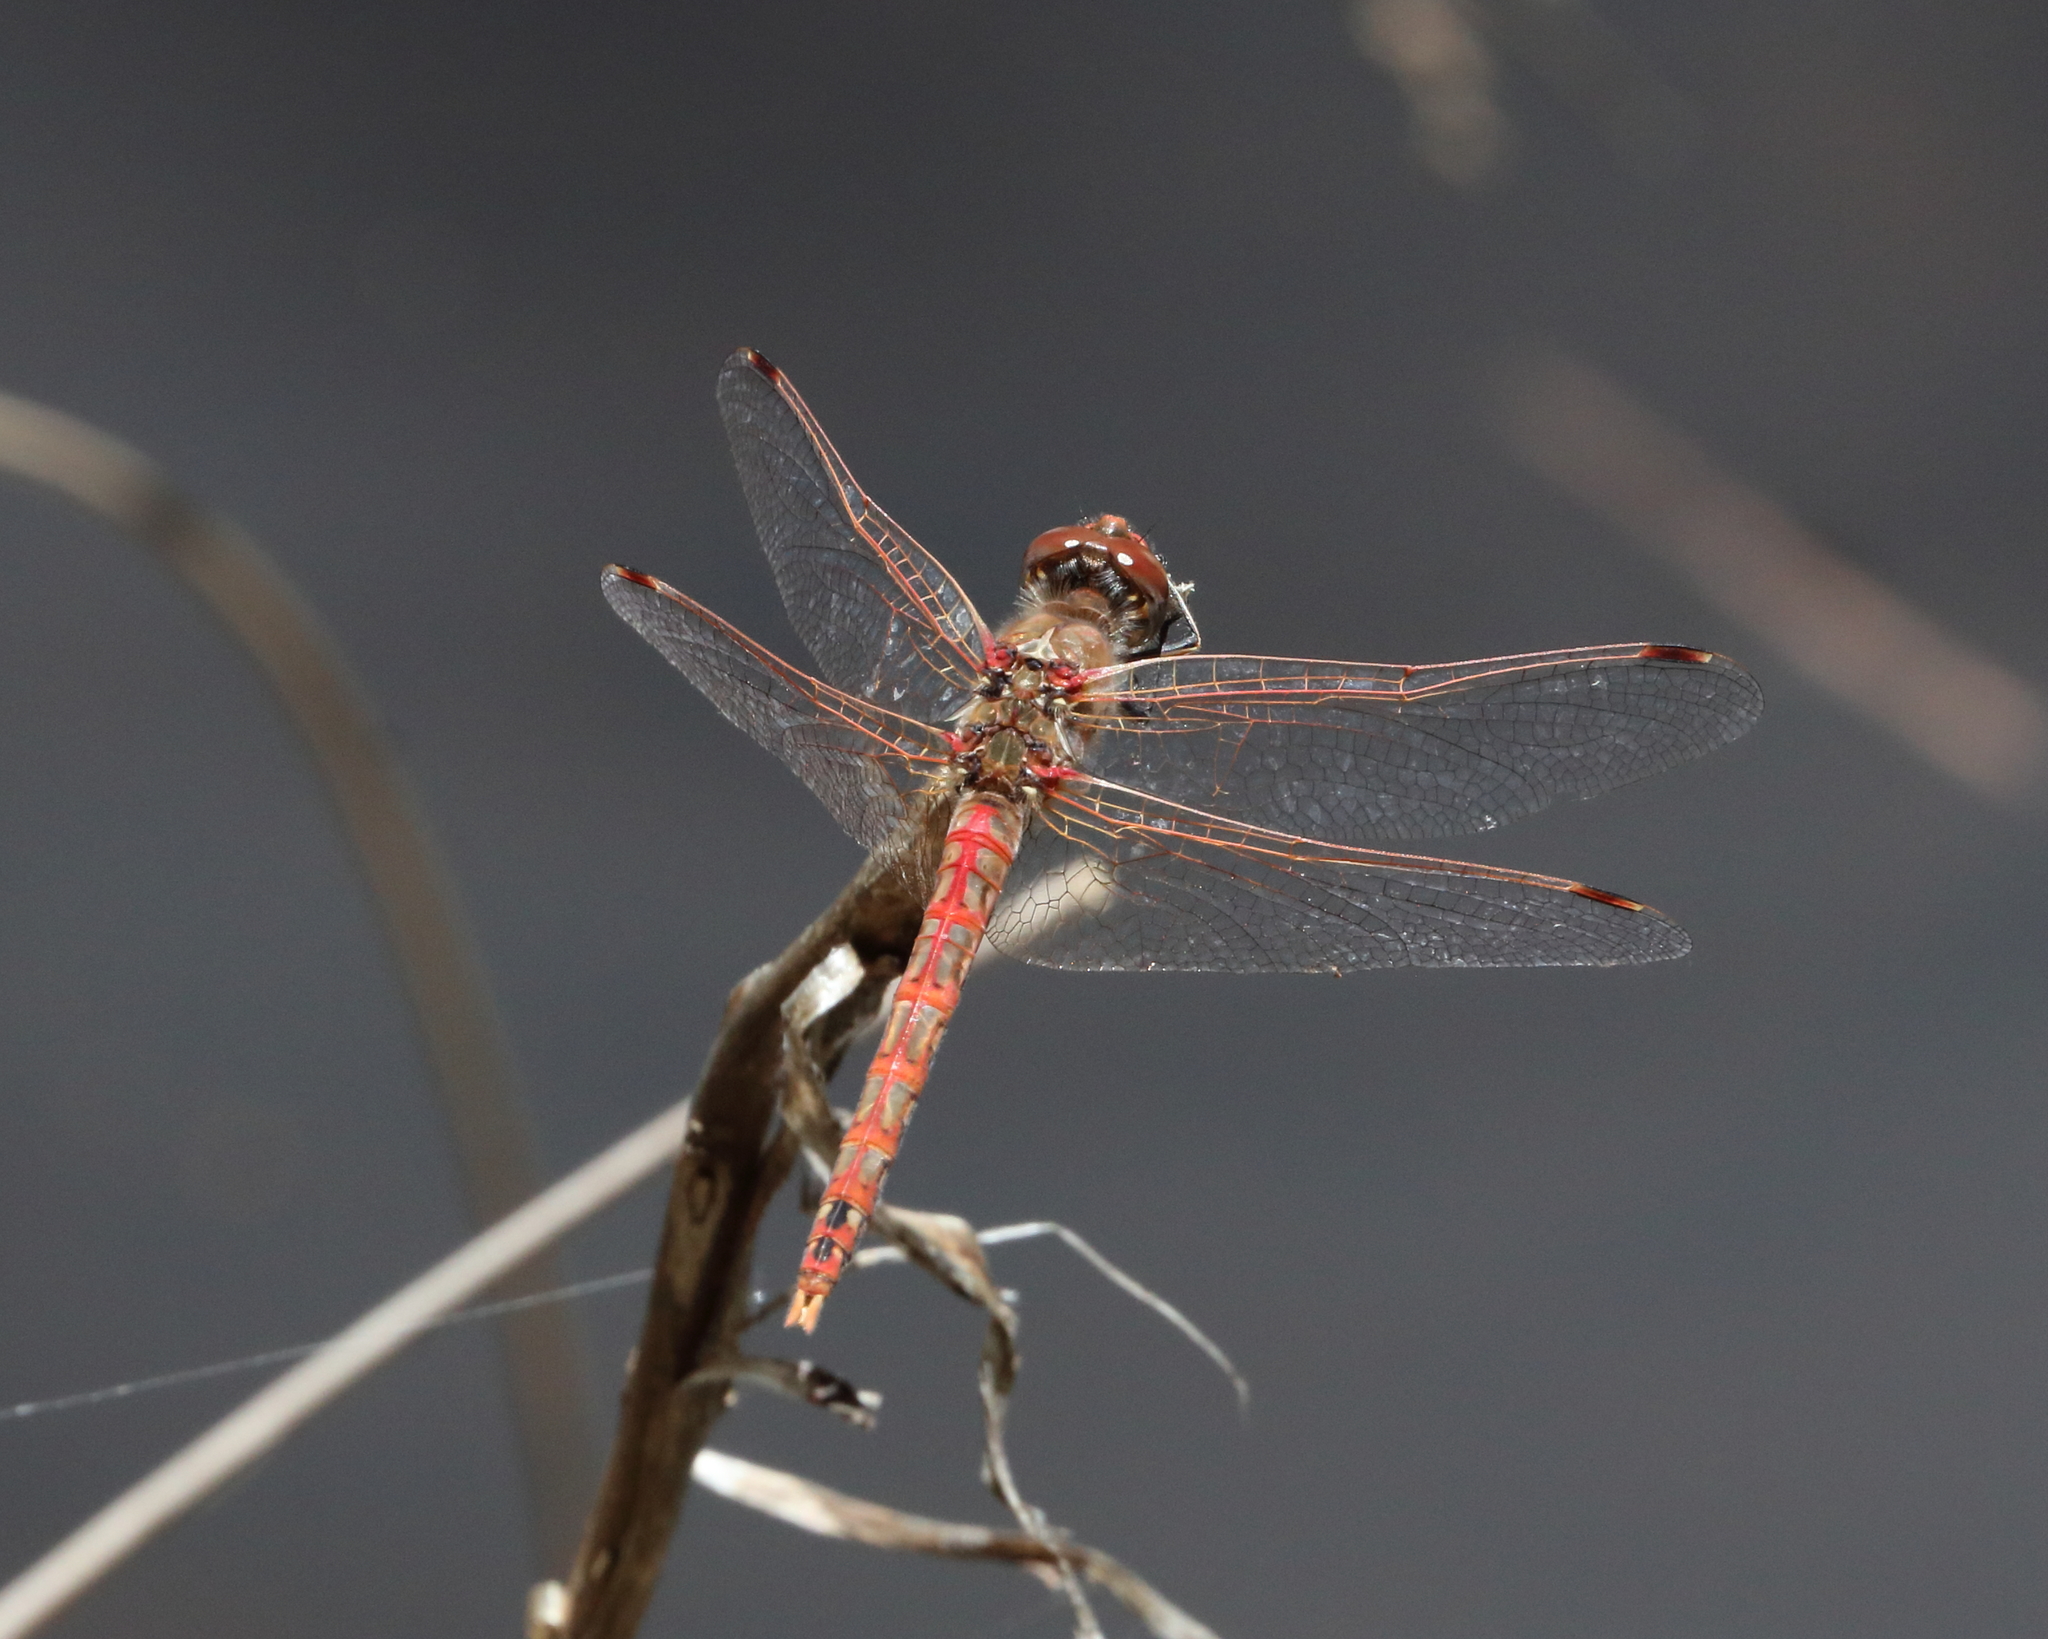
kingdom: Animalia
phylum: Arthropoda
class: Insecta
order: Odonata
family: Libellulidae
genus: Sympetrum
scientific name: Sympetrum corruptum
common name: Variegated meadowhawk
